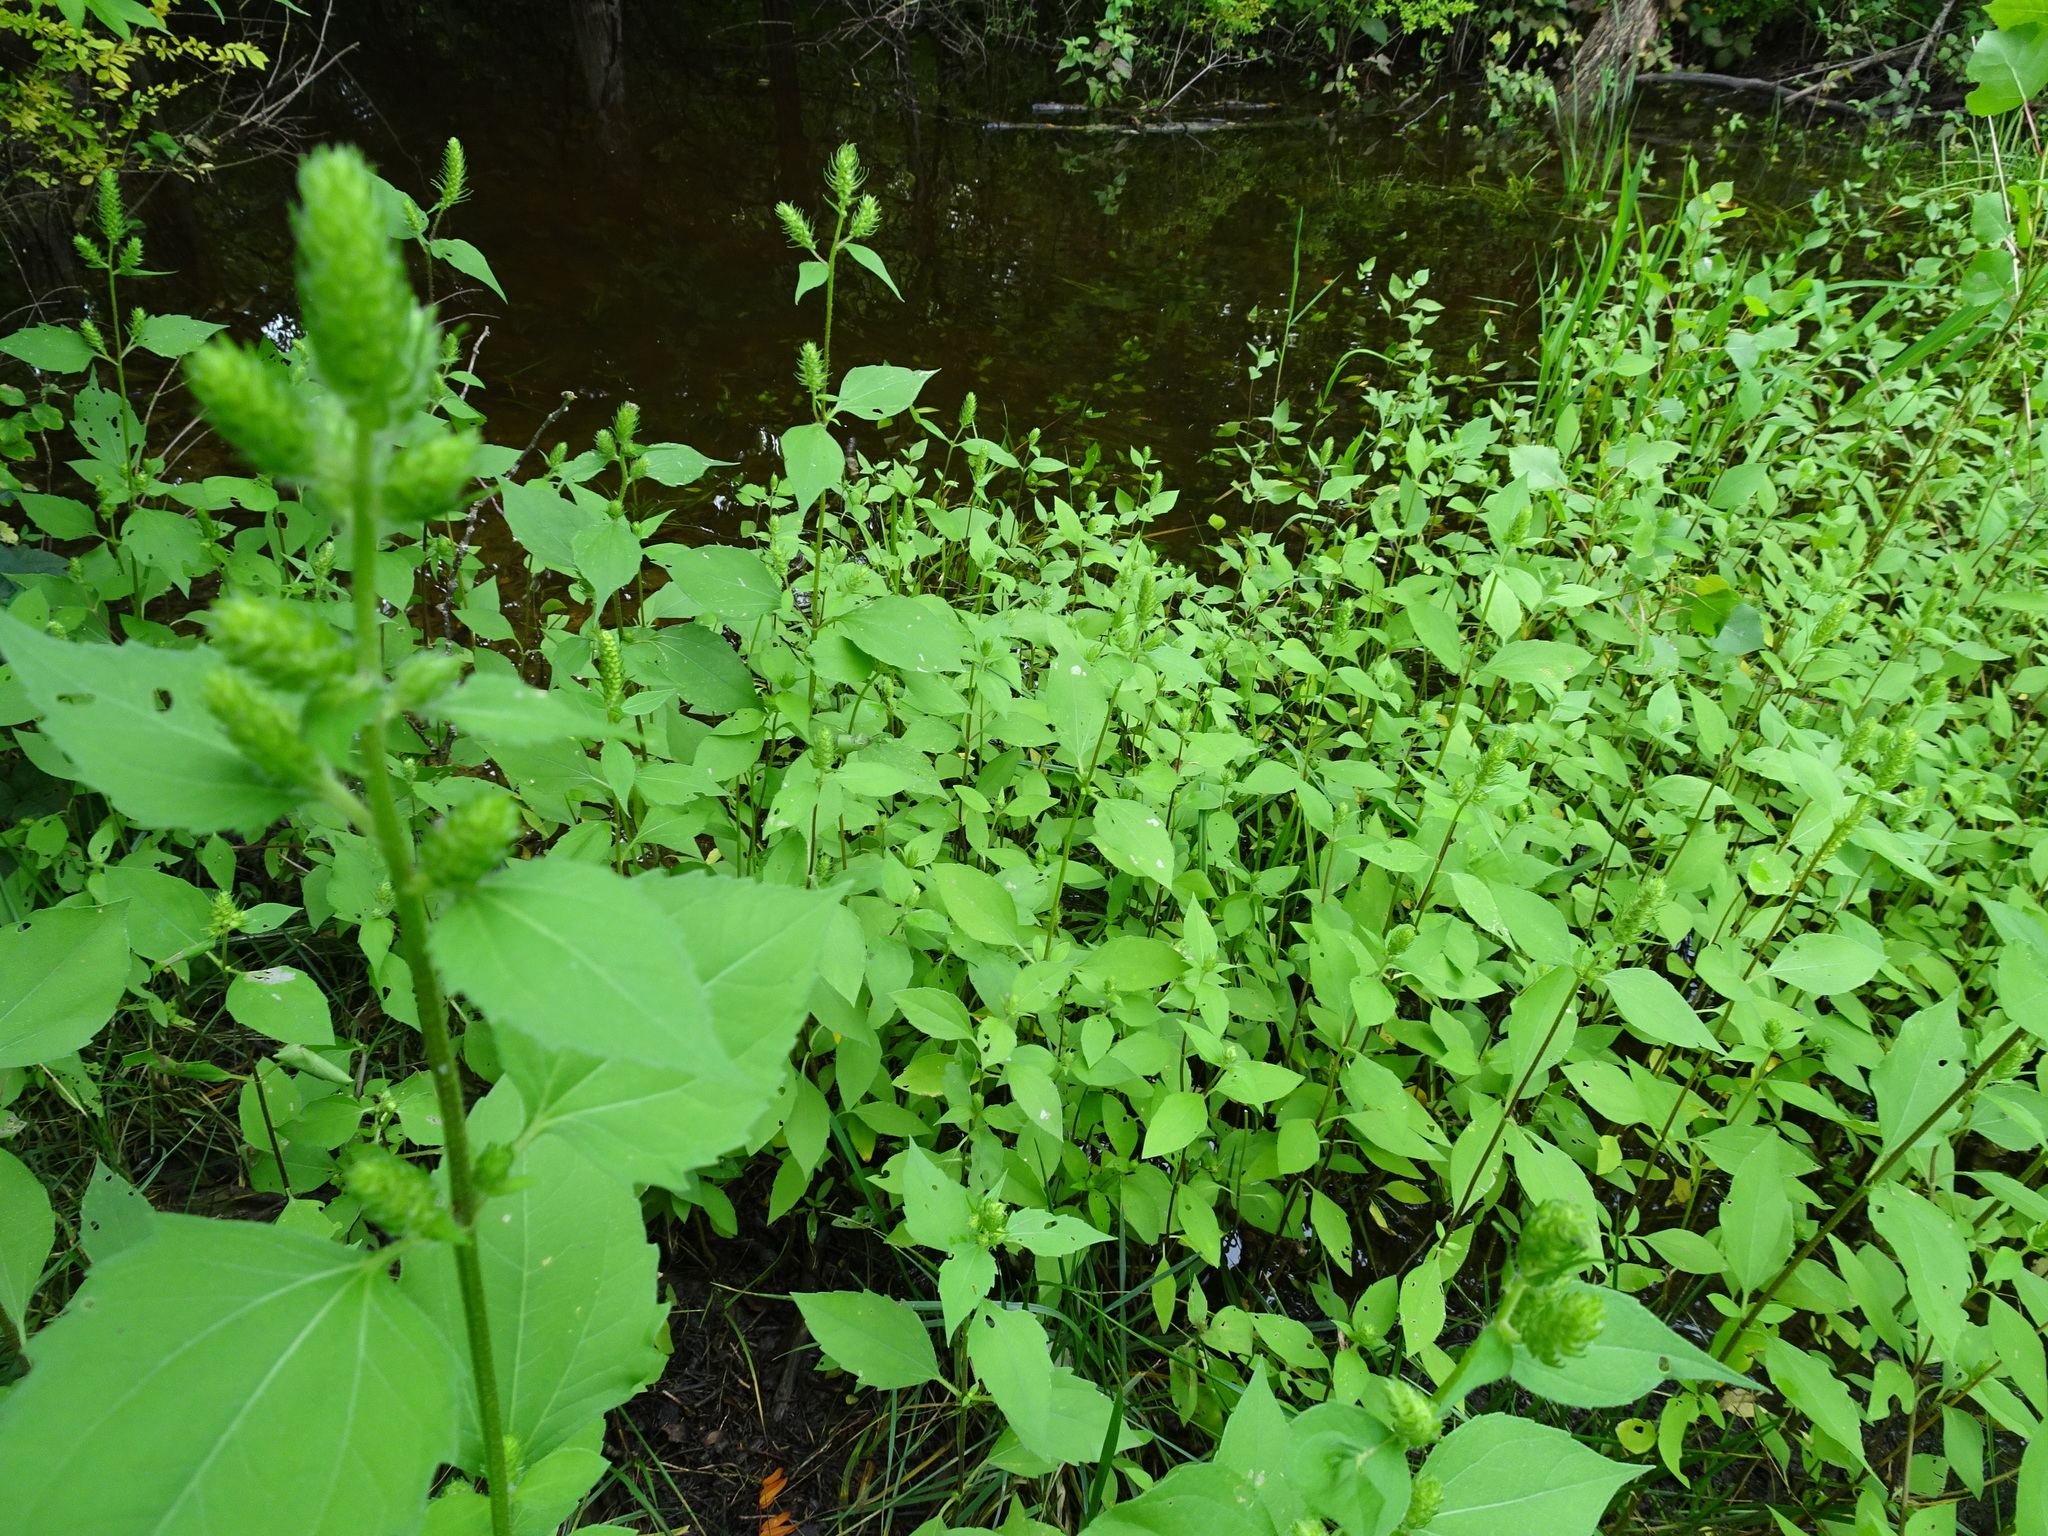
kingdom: Plantae
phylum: Tracheophyta
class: Magnoliopsida
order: Asterales
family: Asteraceae
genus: Iva
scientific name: Iva annua
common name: Marsh-elder
